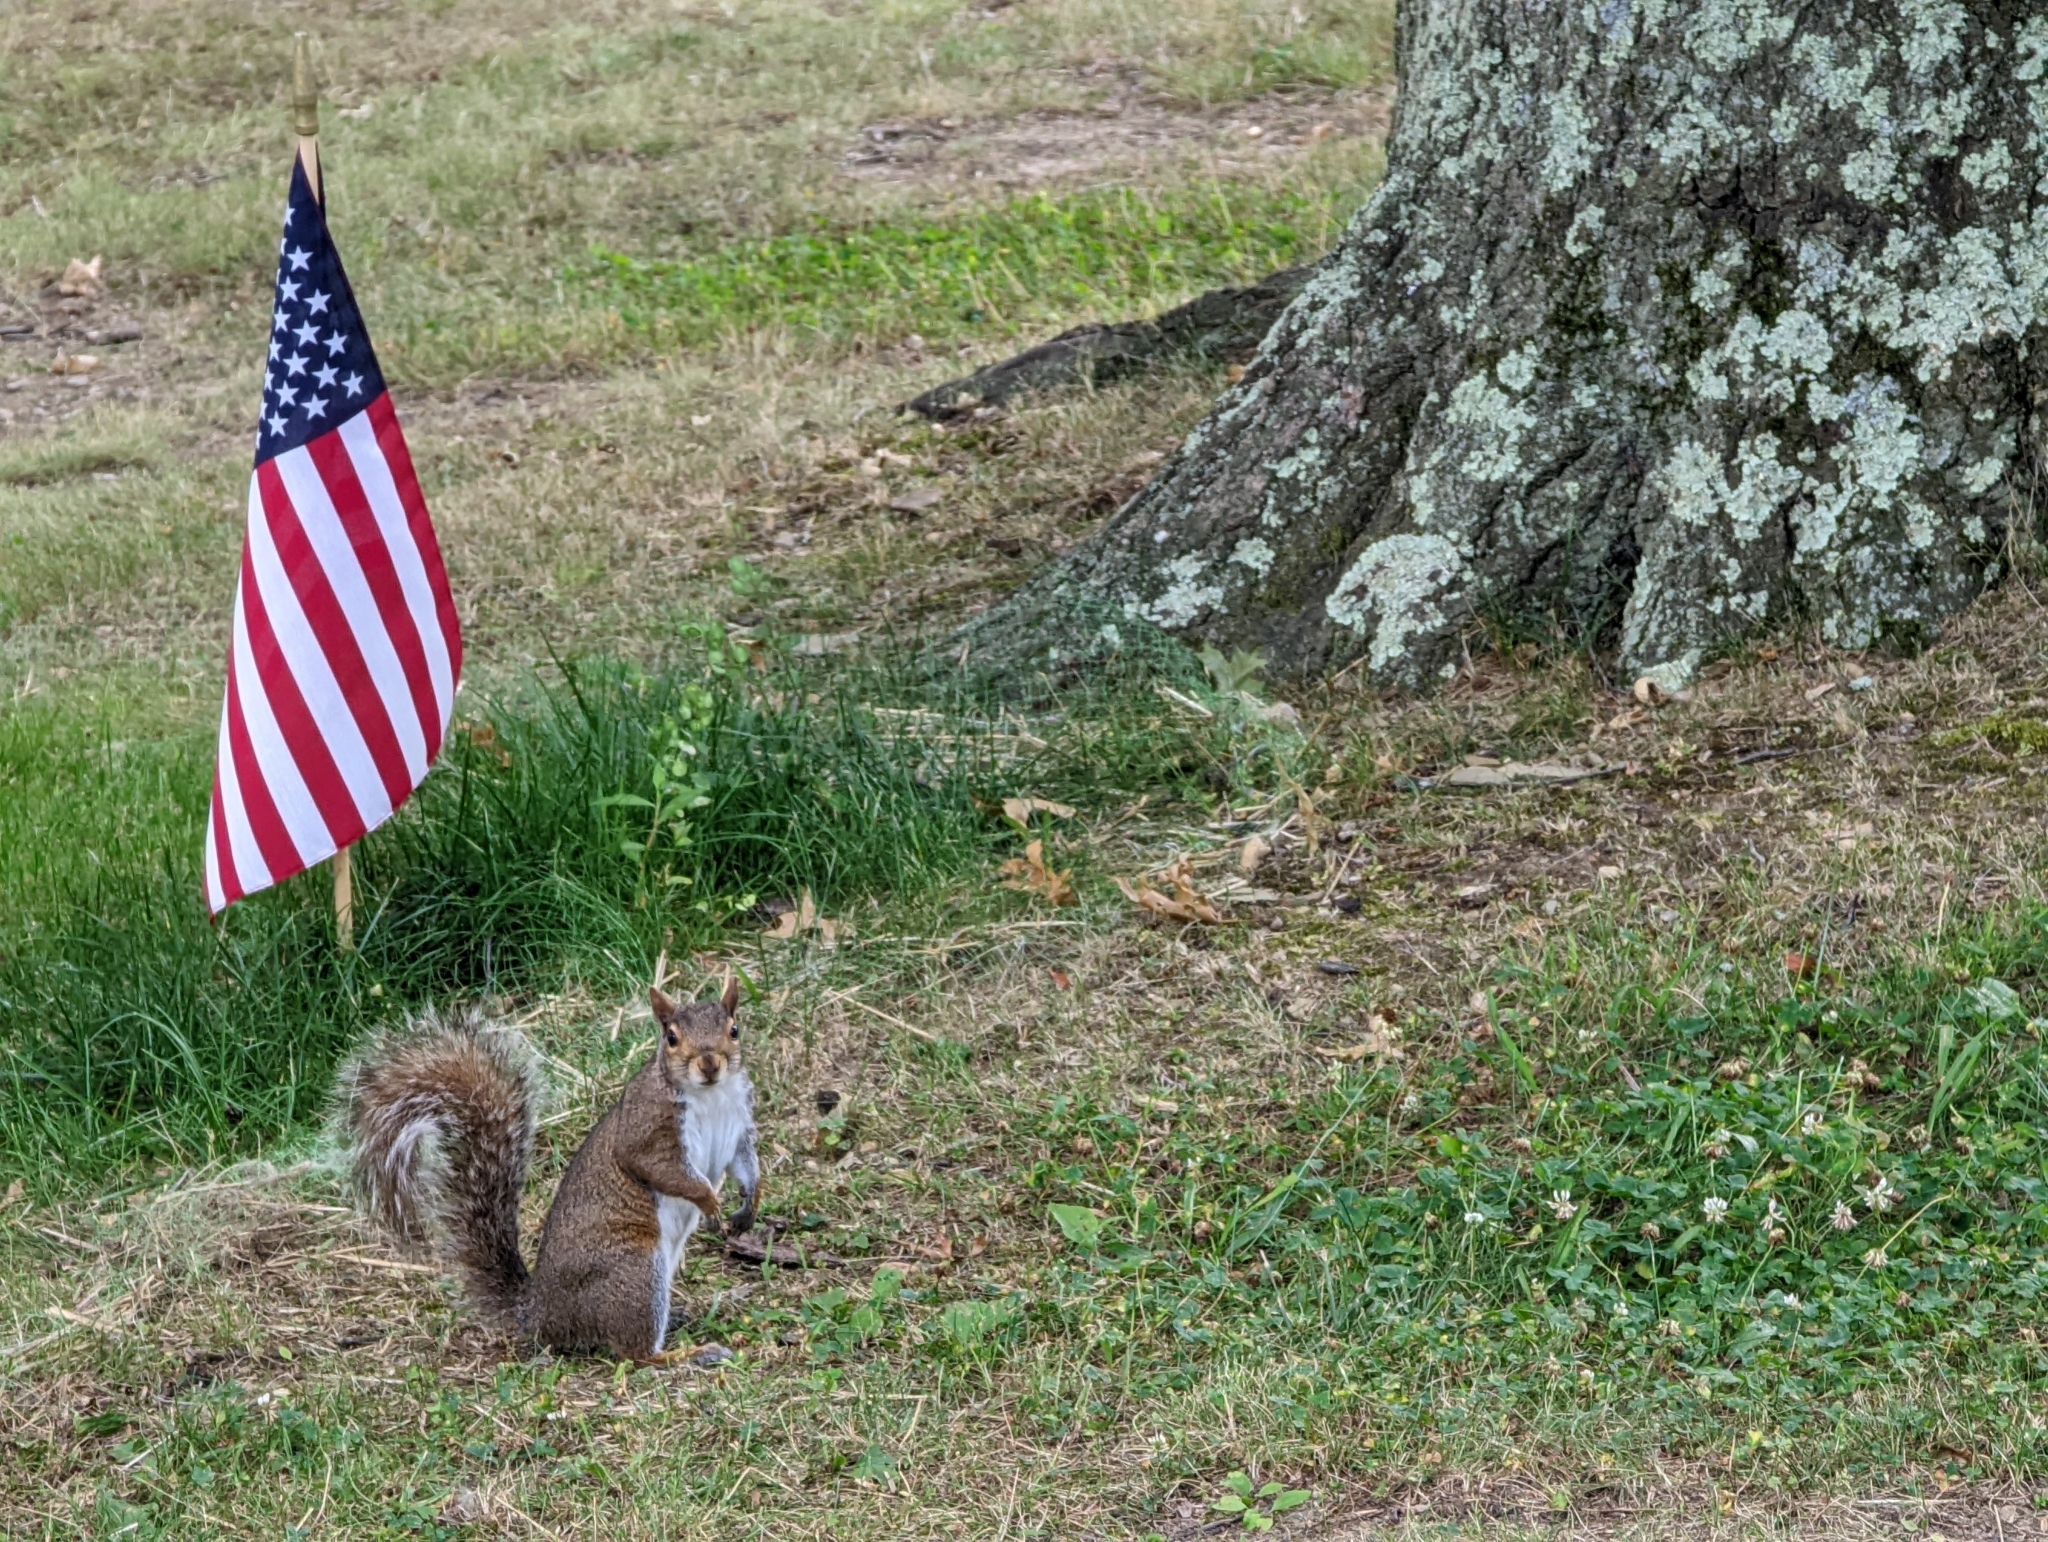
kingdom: Animalia
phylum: Chordata
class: Mammalia
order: Rodentia
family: Sciuridae
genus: Sciurus
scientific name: Sciurus carolinensis
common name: Eastern gray squirrel
